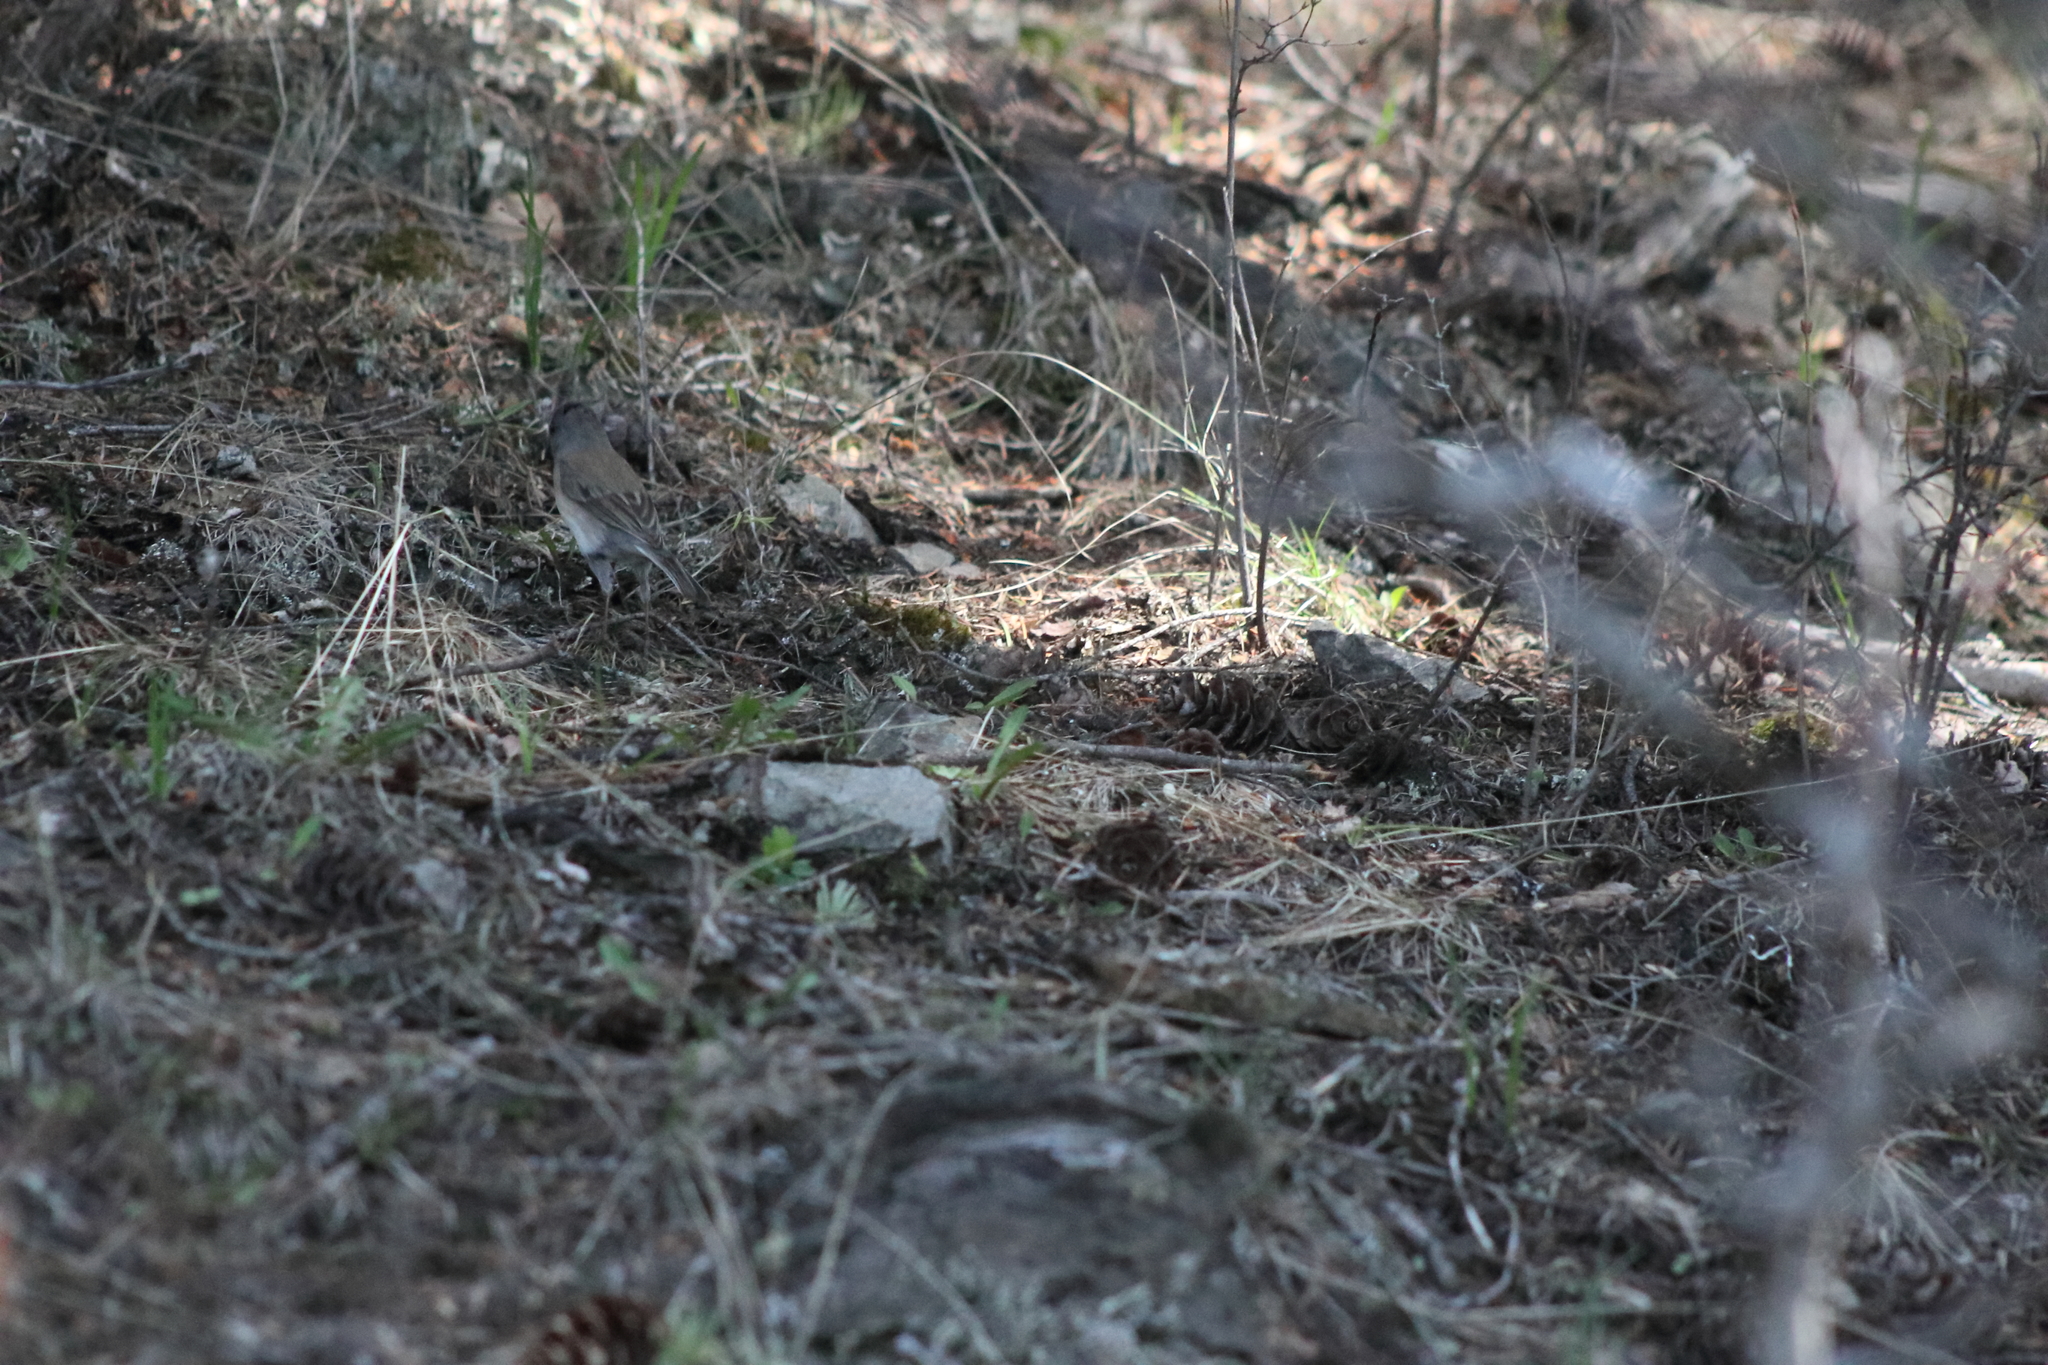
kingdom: Animalia
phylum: Chordata
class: Aves
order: Passeriformes
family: Passerellidae
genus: Junco
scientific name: Junco hyemalis
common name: Dark-eyed junco
